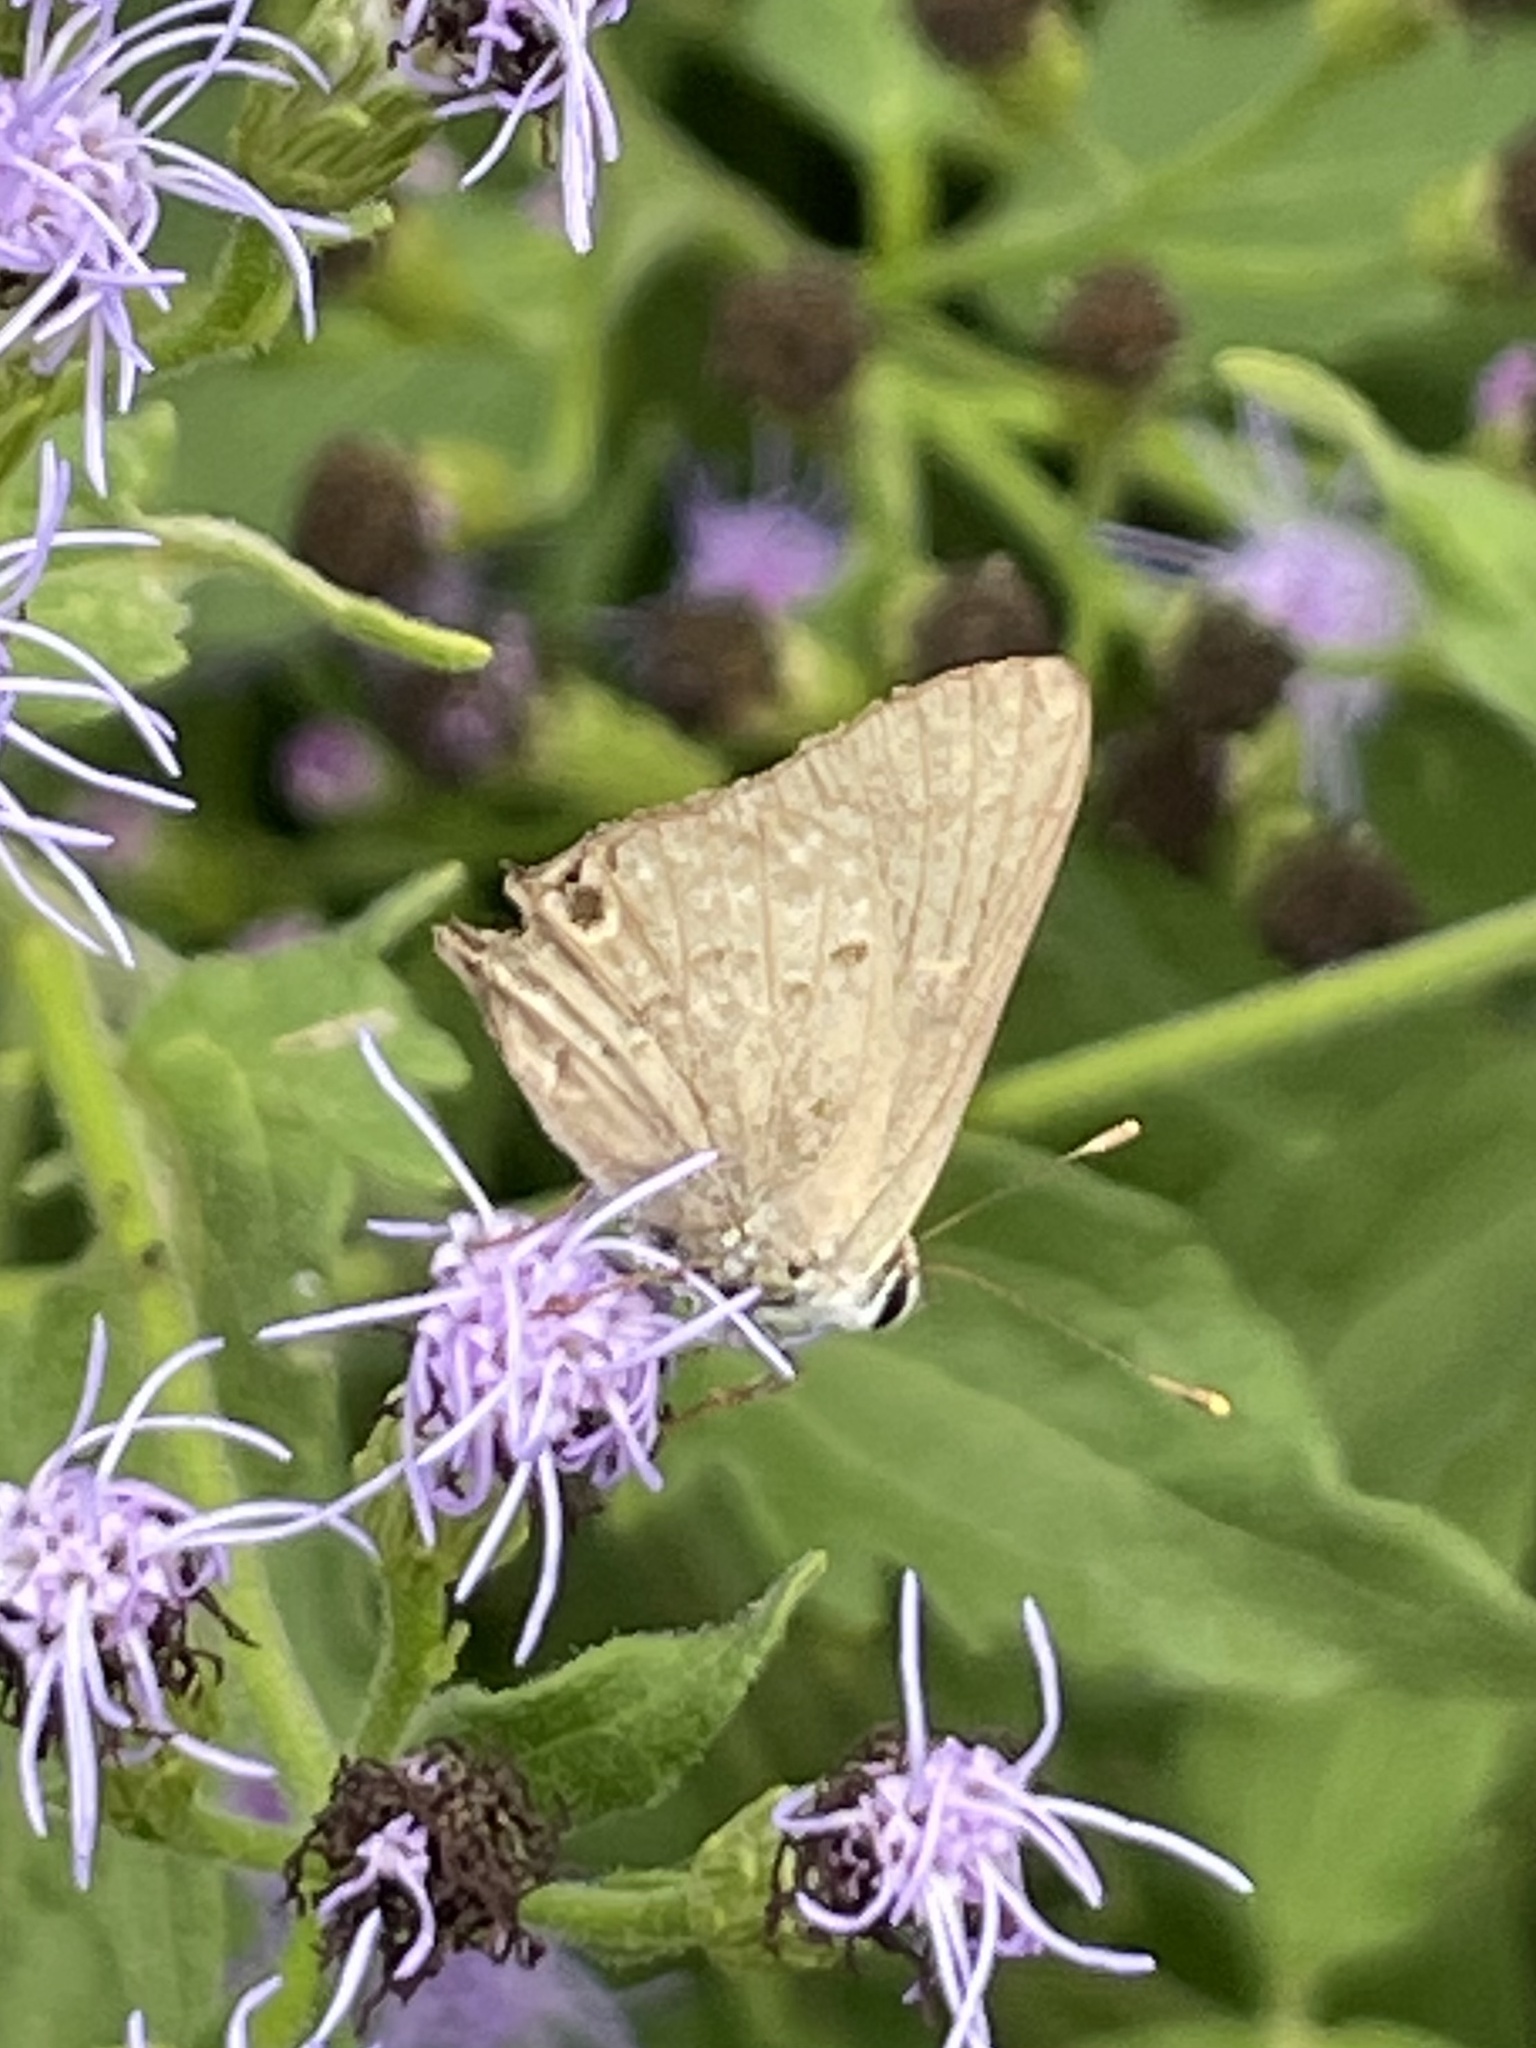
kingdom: Animalia
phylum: Arthropoda
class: Insecta
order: Lepidoptera
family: Lycaenidae
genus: Callicista
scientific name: Callicista columella
